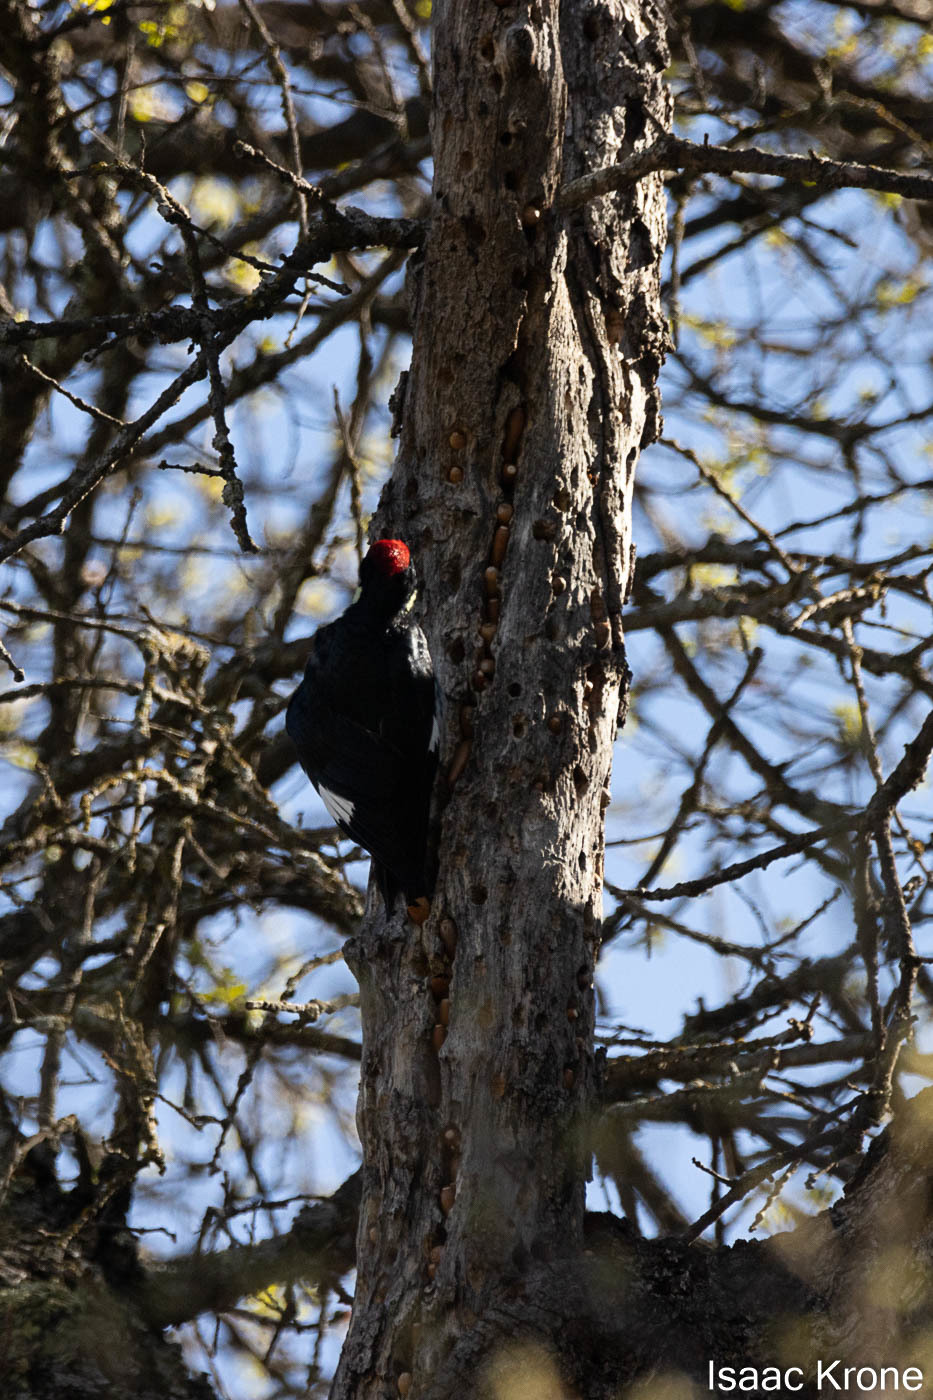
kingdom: Animalia
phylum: Chordata
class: Aves
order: Piciformes
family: Picidae
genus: Melanerpes
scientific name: Melanerpes formicivorus
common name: Acorn woodpecker
